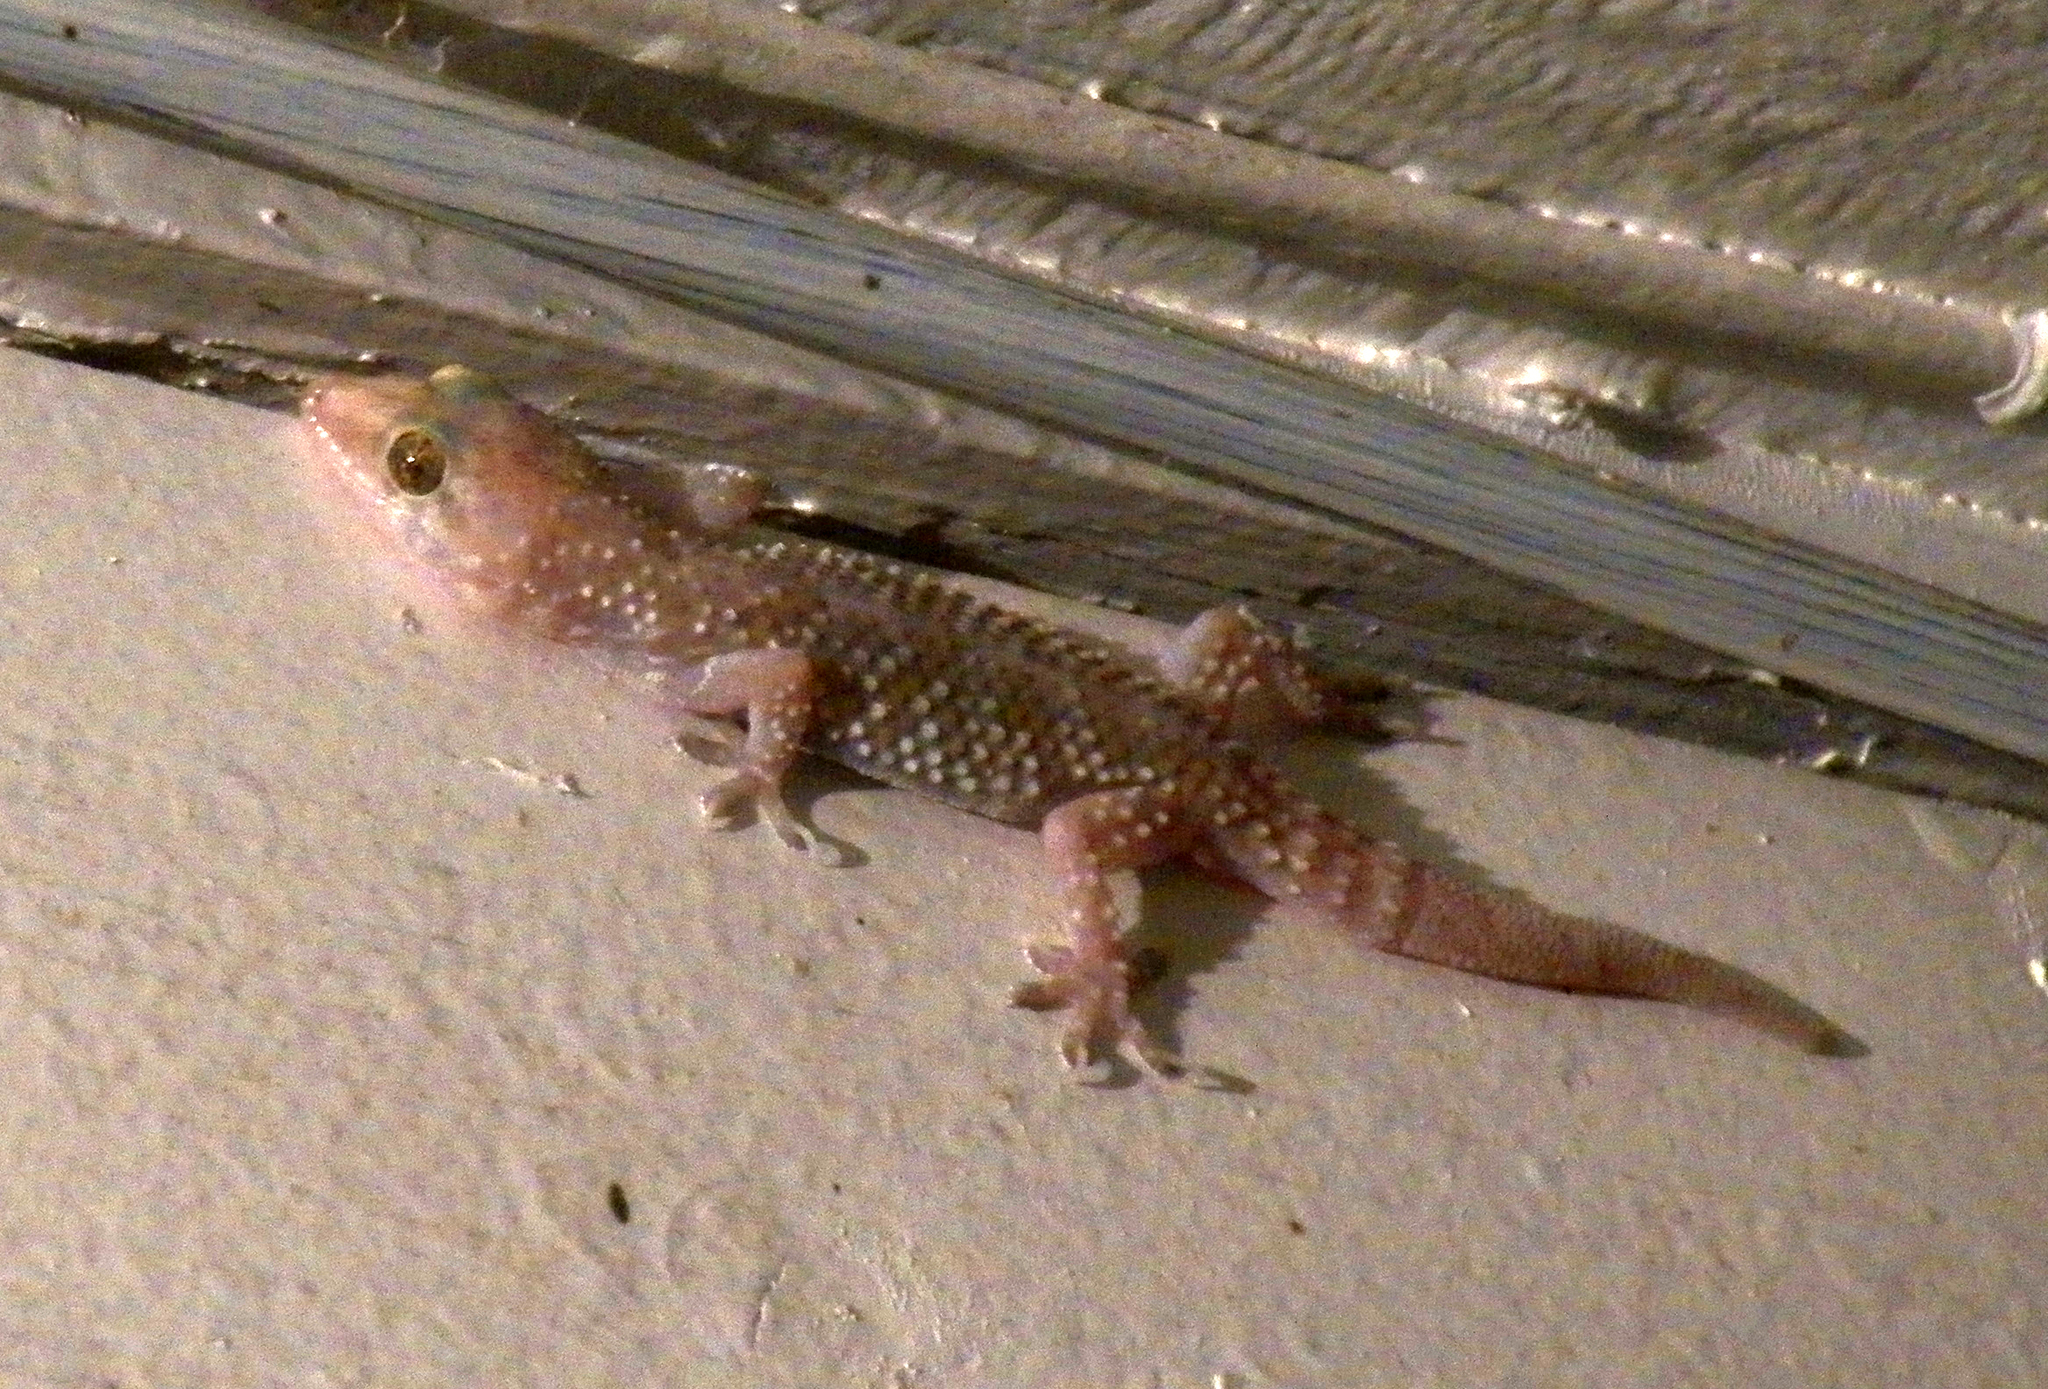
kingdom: Animalia
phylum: Chordata
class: Squamata
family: Gekkonidae
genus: Hemidactylus
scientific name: Hemidactylus turcicus
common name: Turkish gecko
